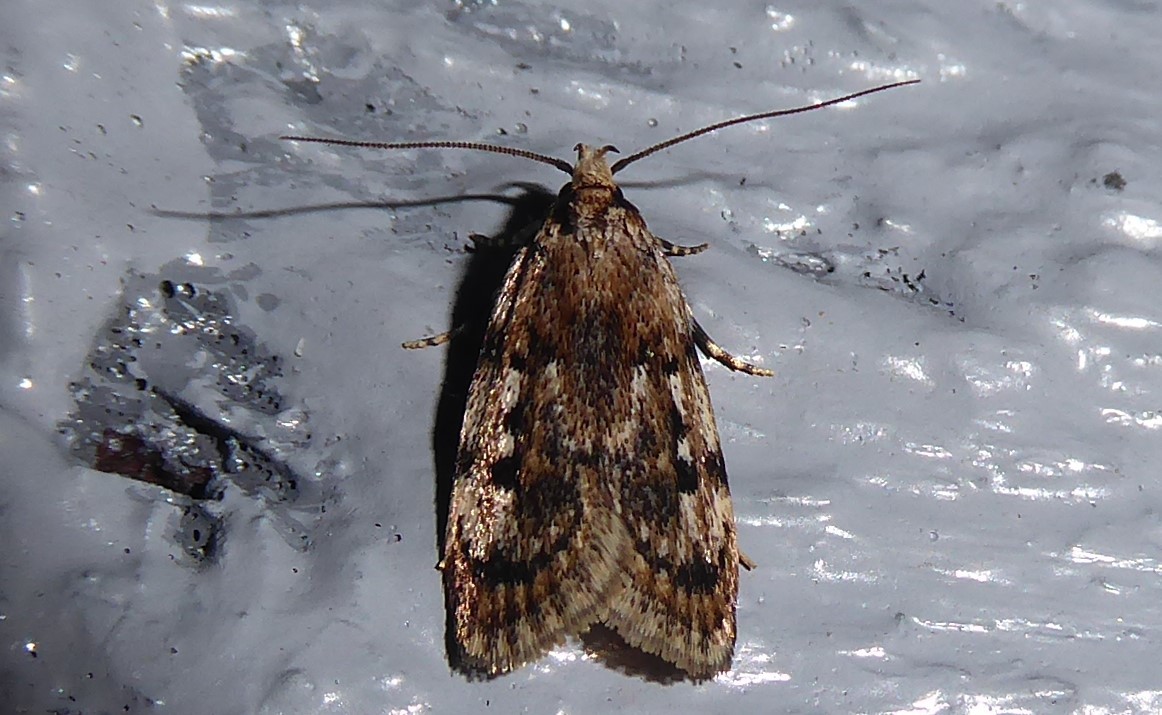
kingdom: Animalia
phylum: Arthropoda
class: Insecta
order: Lepidoptera
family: Oecophoridae
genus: Barea
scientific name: Barea exarcha
